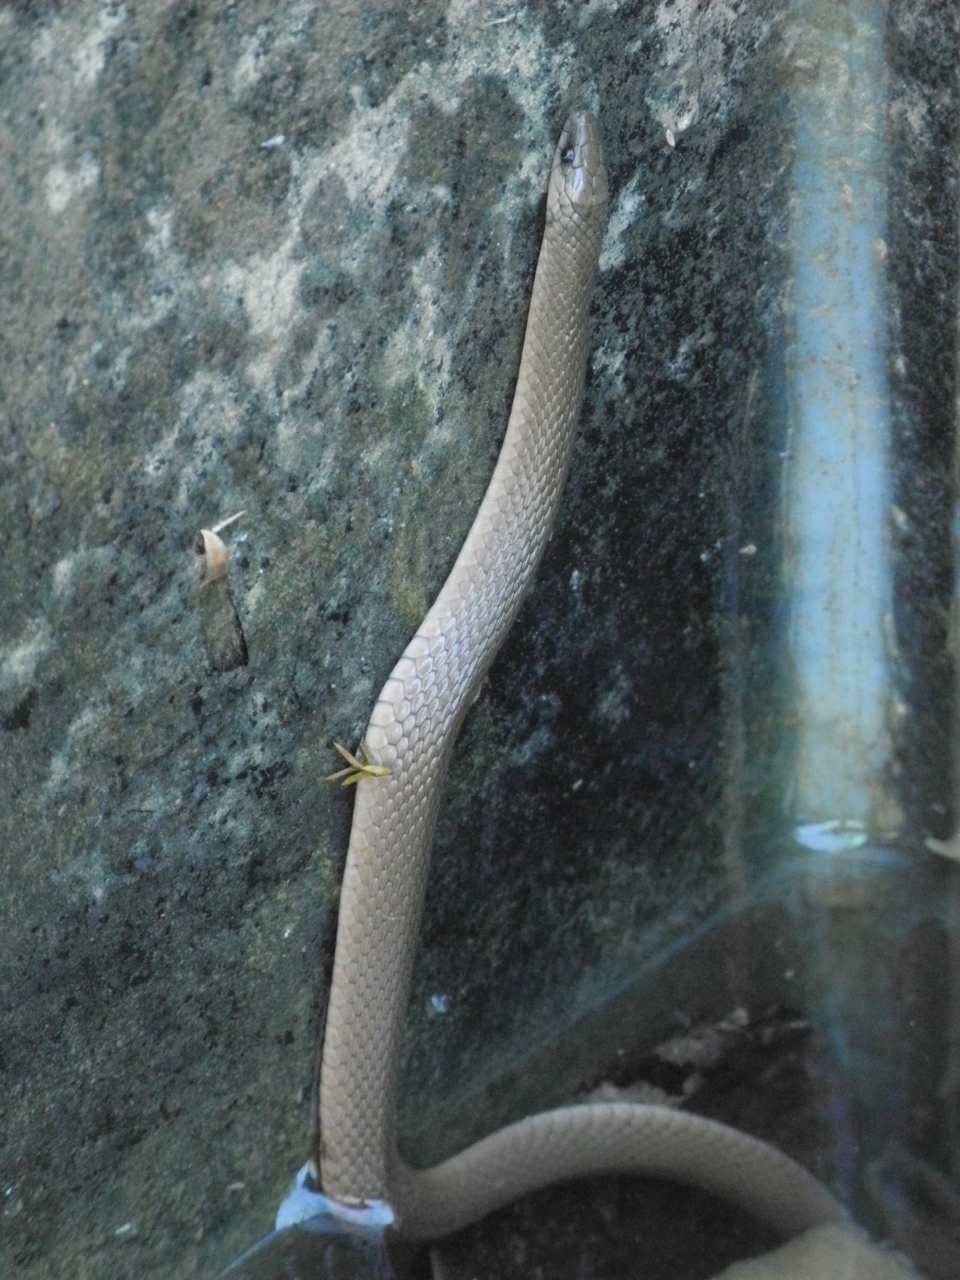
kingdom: Animalia
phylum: Chordata
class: Squamata
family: Colubridae
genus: Haldea
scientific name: Haldea striatula
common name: Rough earth snake
